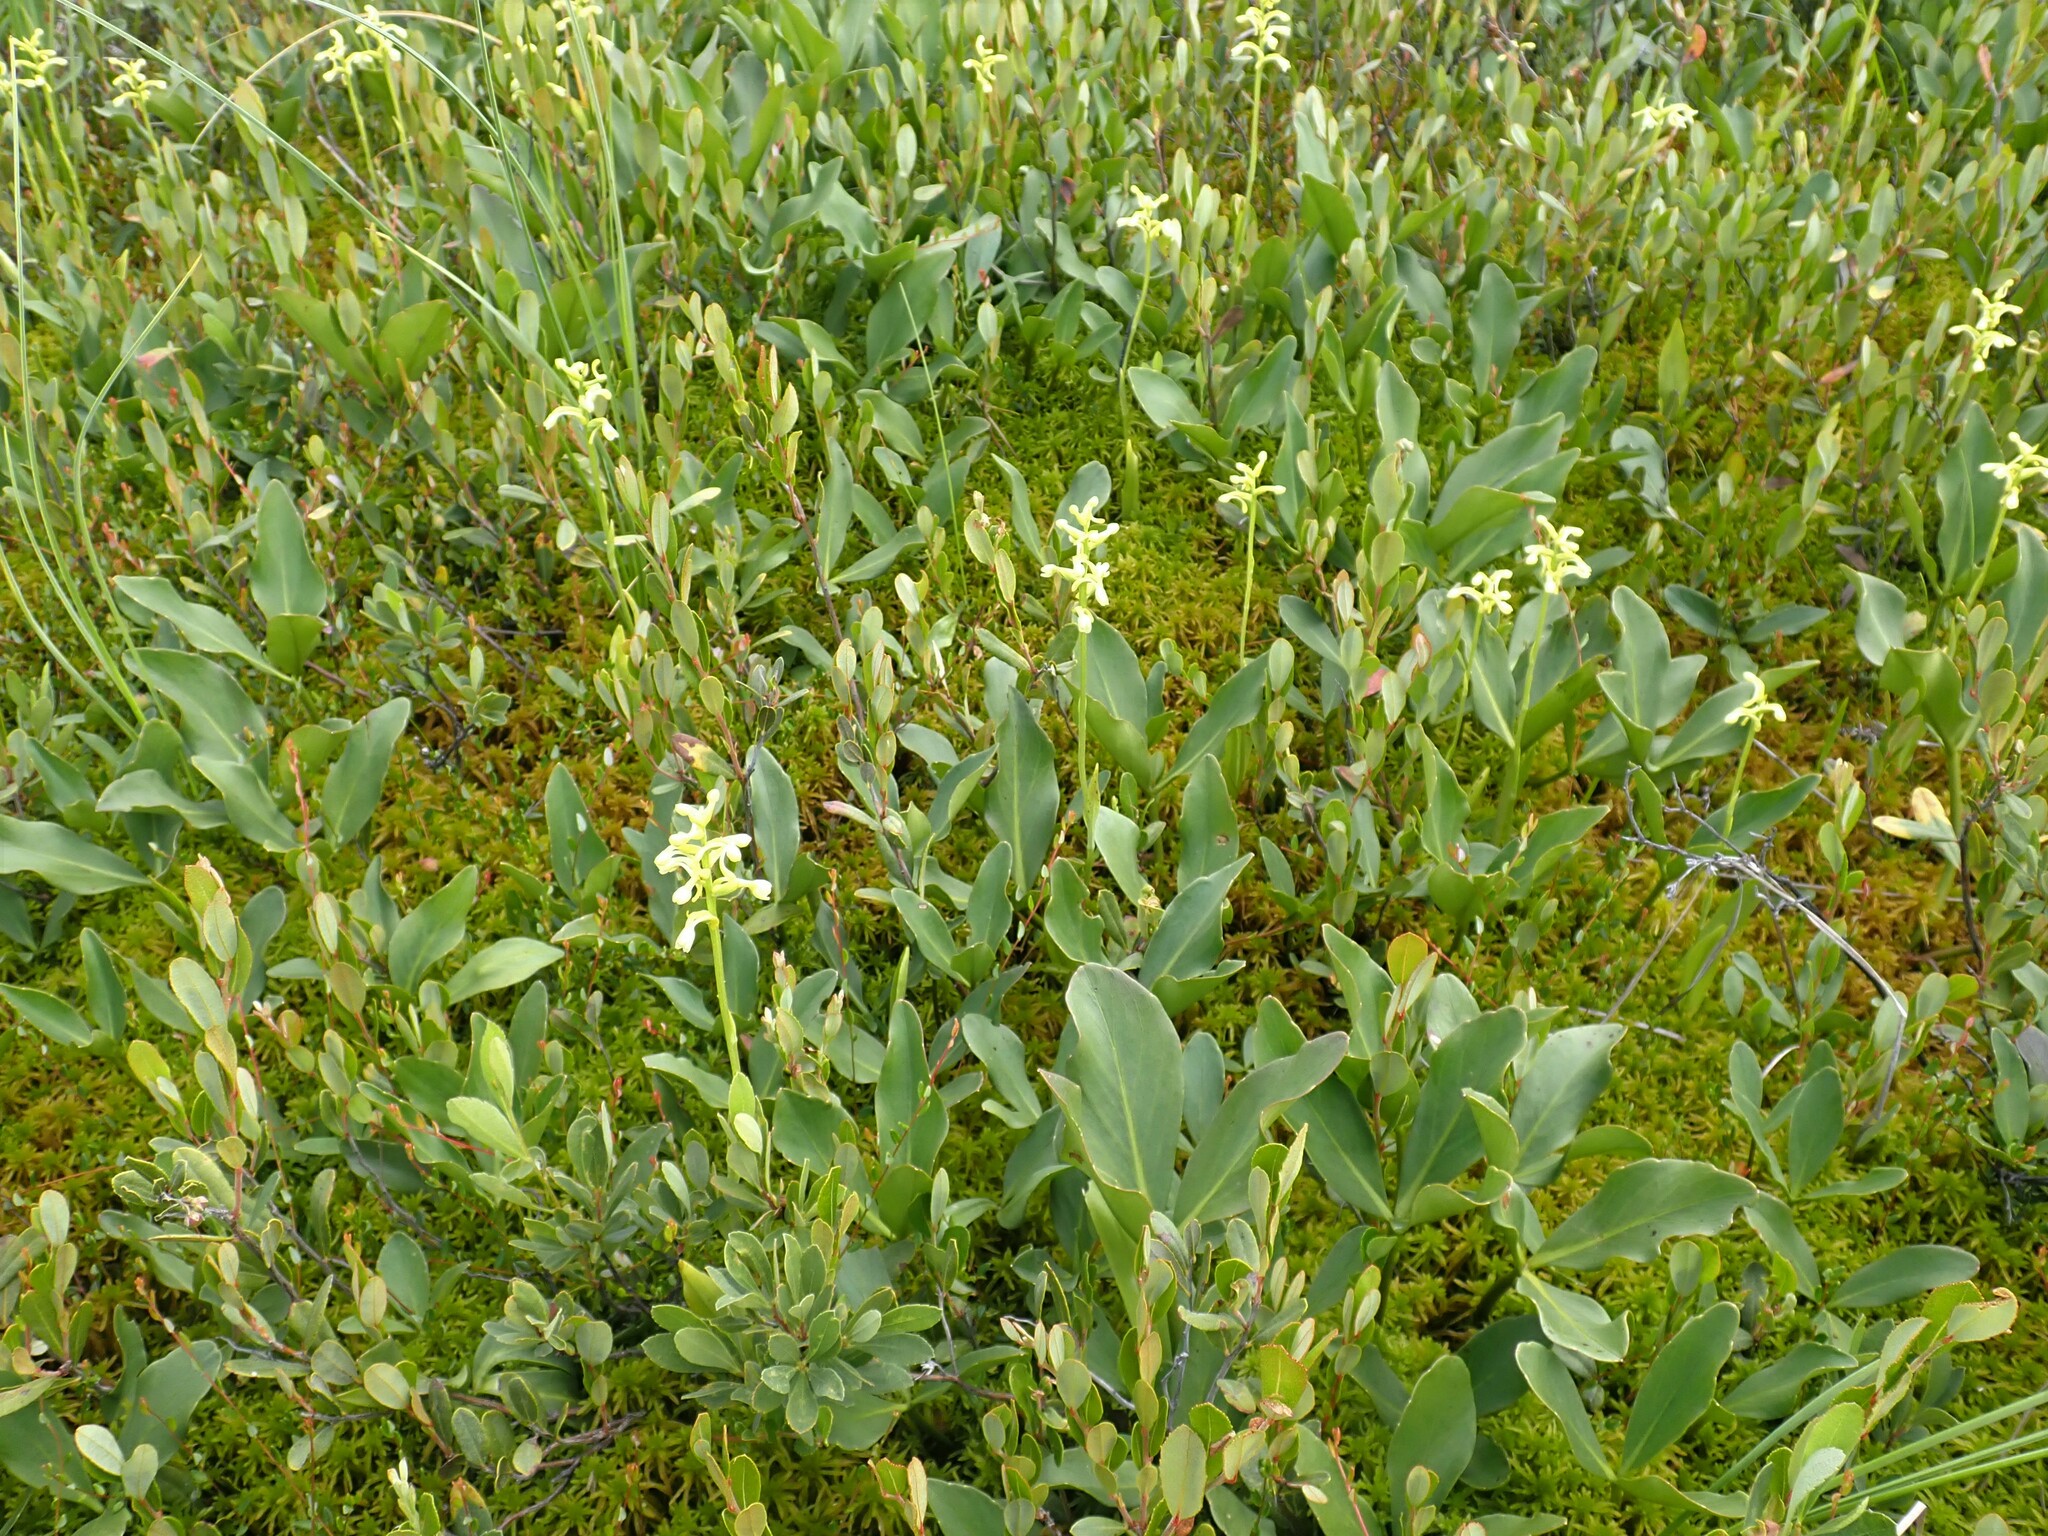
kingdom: Plantae
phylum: Tracheophyta
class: Liliopsida
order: Asparagales
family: Orchidaceae
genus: Platanthera
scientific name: Platanthera clavellata
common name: Club-spur orchid
